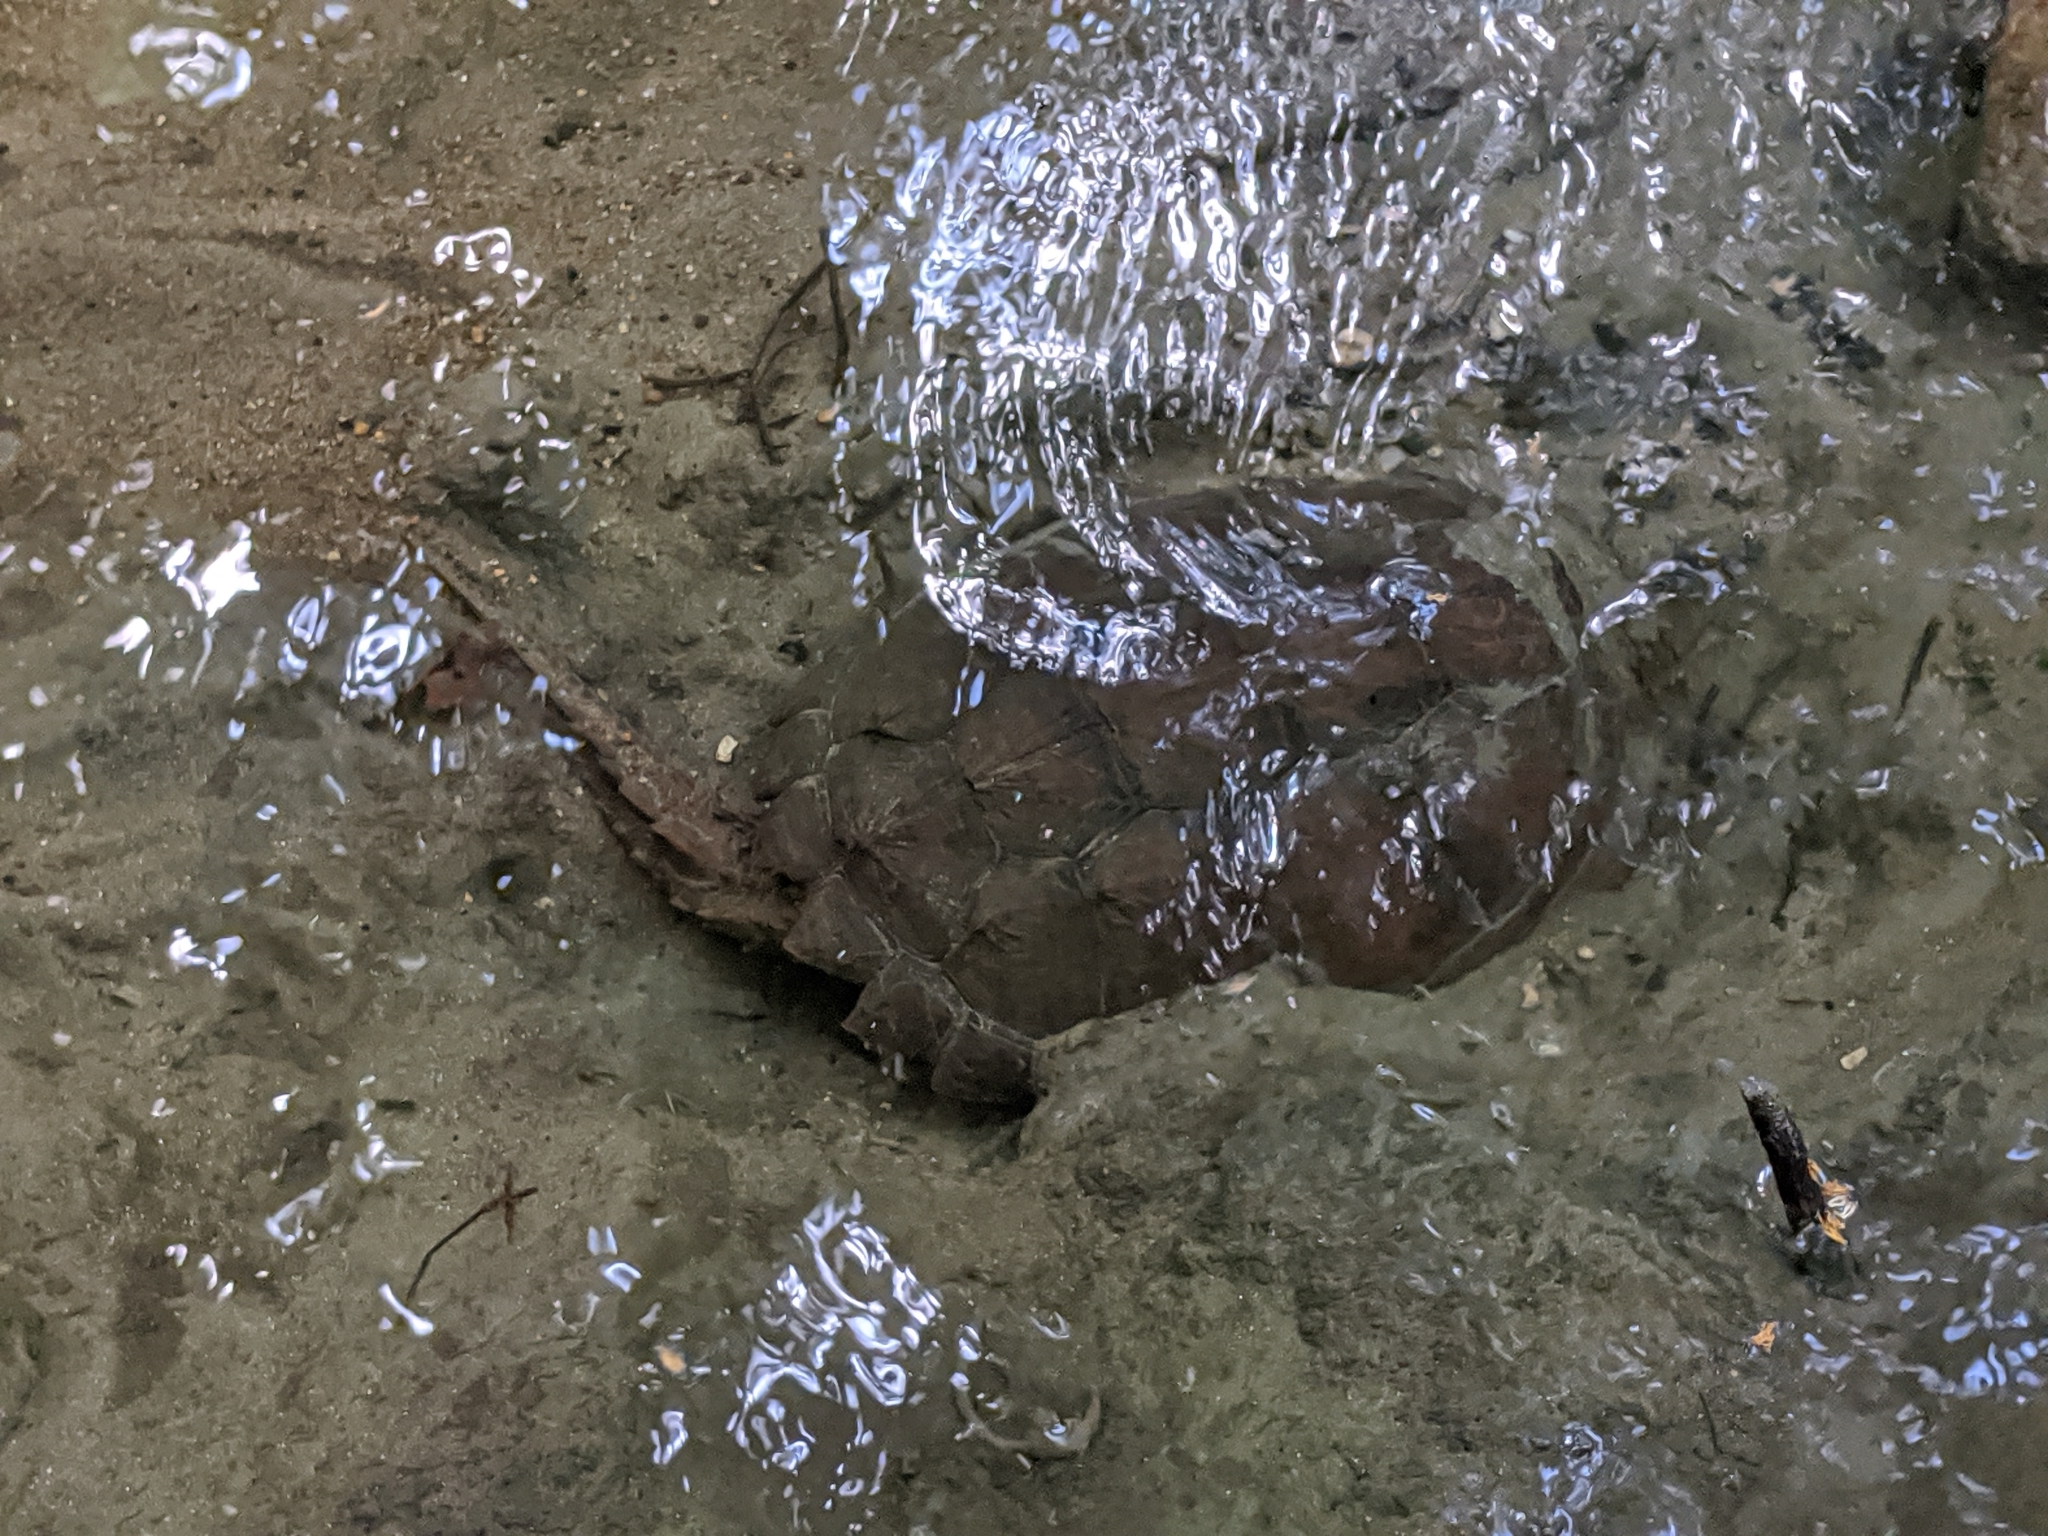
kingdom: Animalia
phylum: Chordata
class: Testudines
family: Chelydridae
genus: Chelydra
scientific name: Chelydra serpentina
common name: Common snapping turtle
